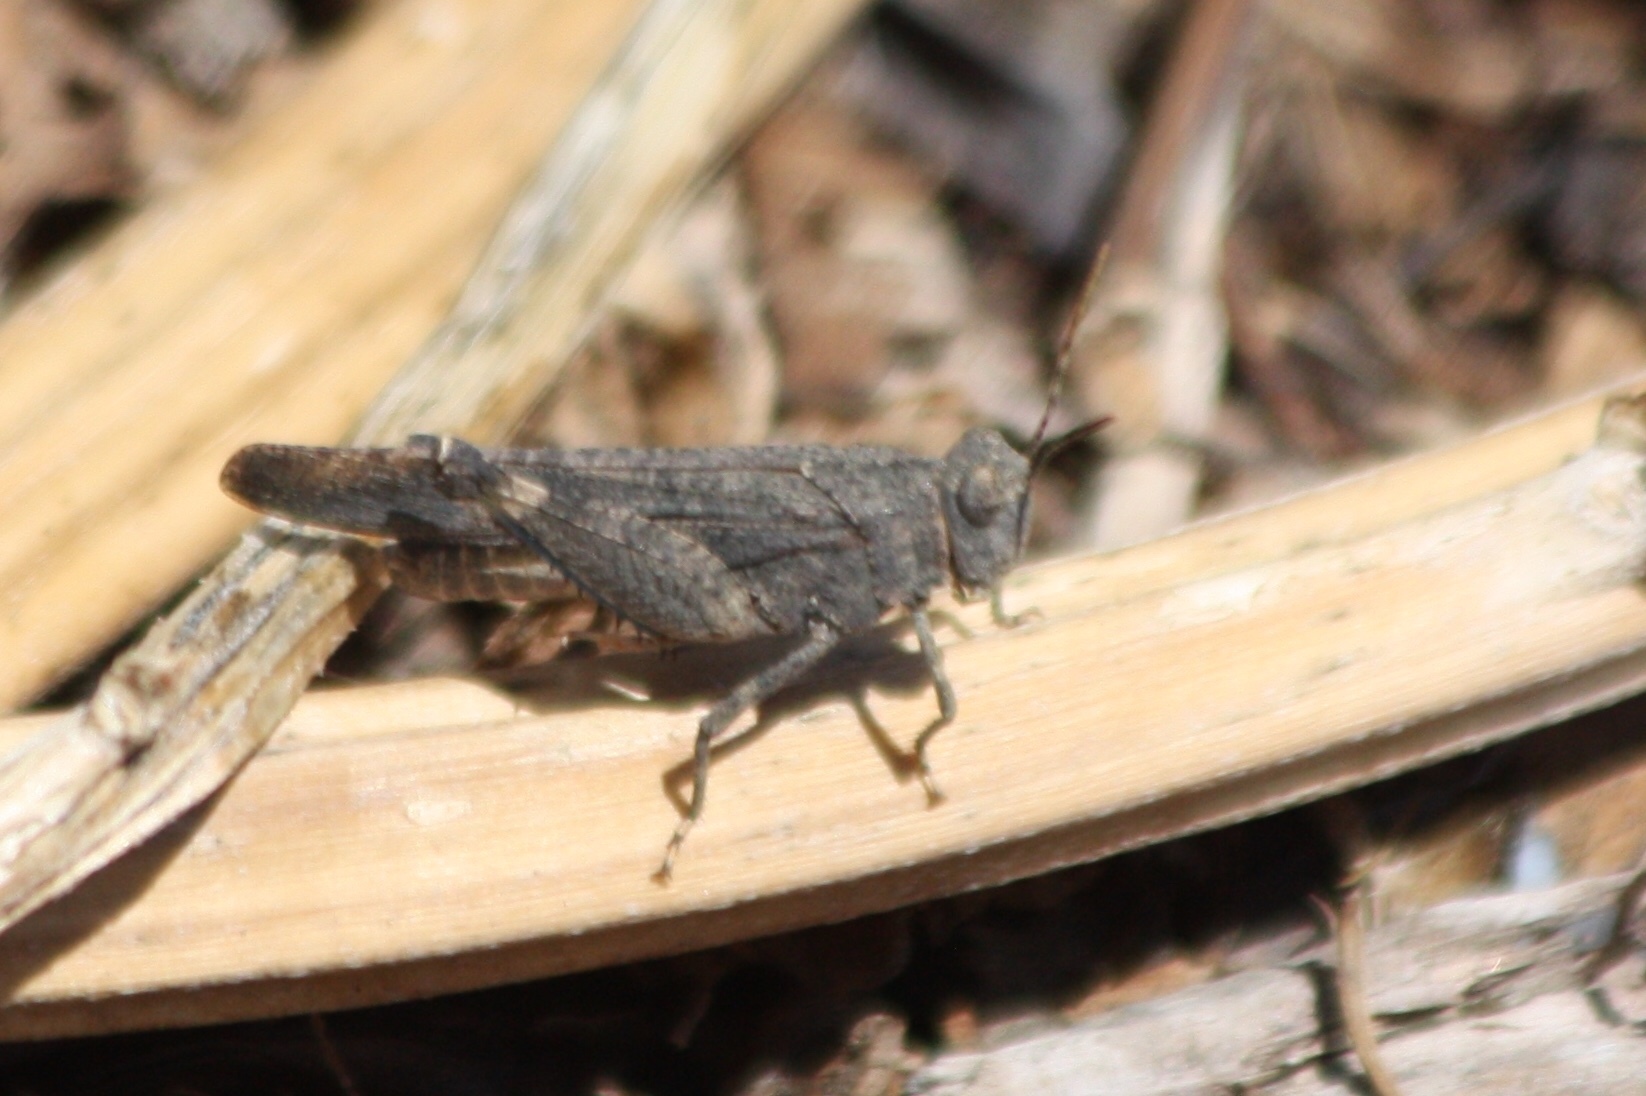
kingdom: Animalia
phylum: Arthropoda
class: Insecta
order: Orthoptera
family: Acrididae
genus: Lactista
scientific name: Lactista gibbosus
